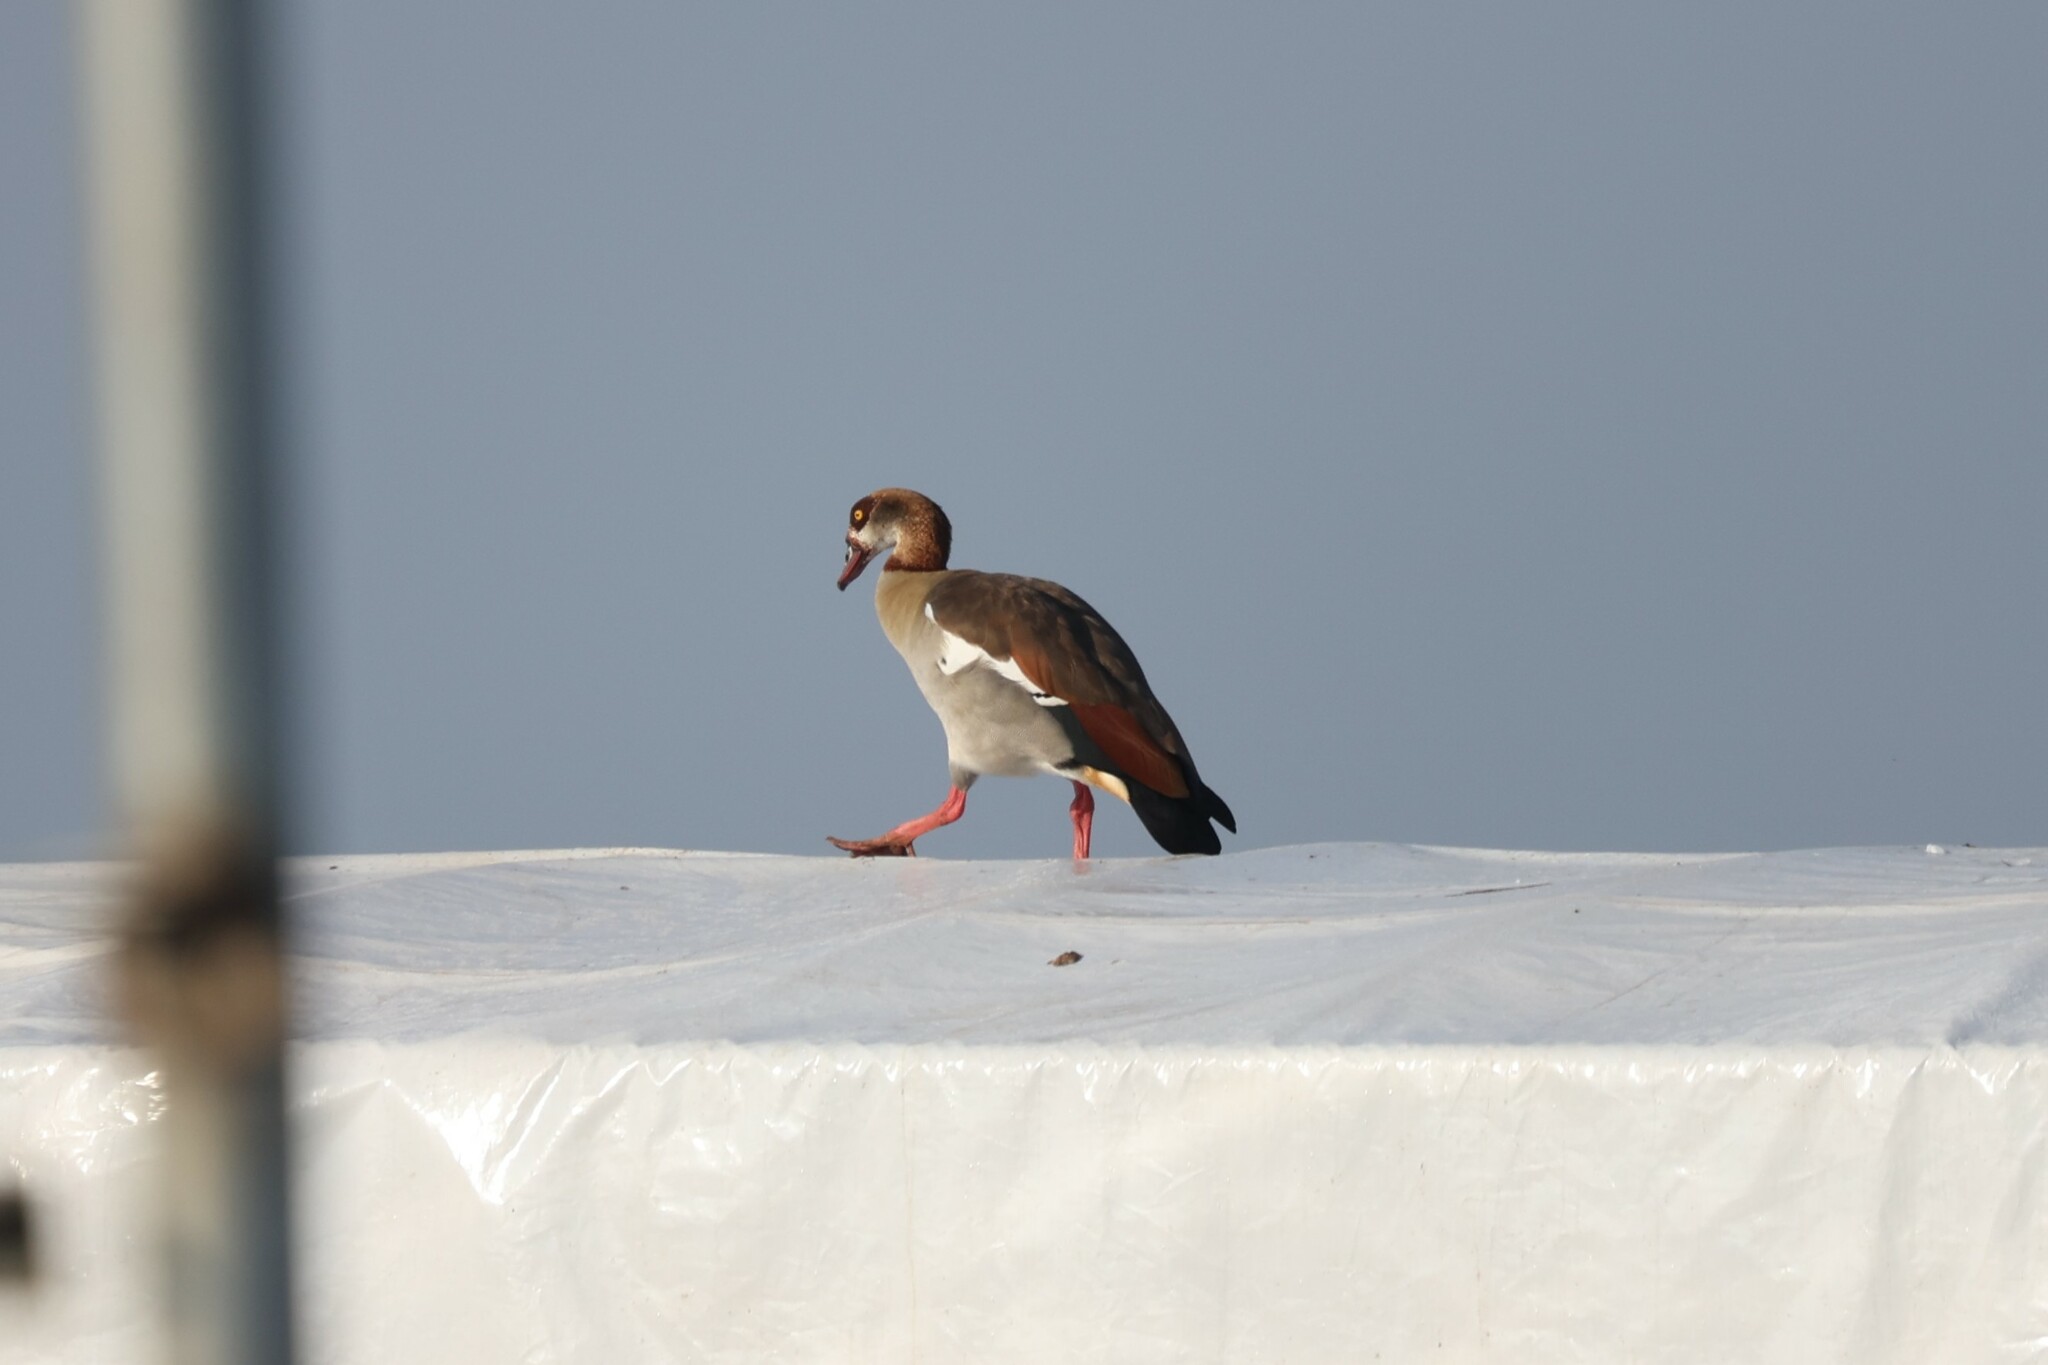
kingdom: Animalia
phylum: Chordata
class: Aves
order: Anseriformes
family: Anatidae
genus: Alopochen
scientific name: Alopochen aegyptiaca
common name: Egyptian goose
